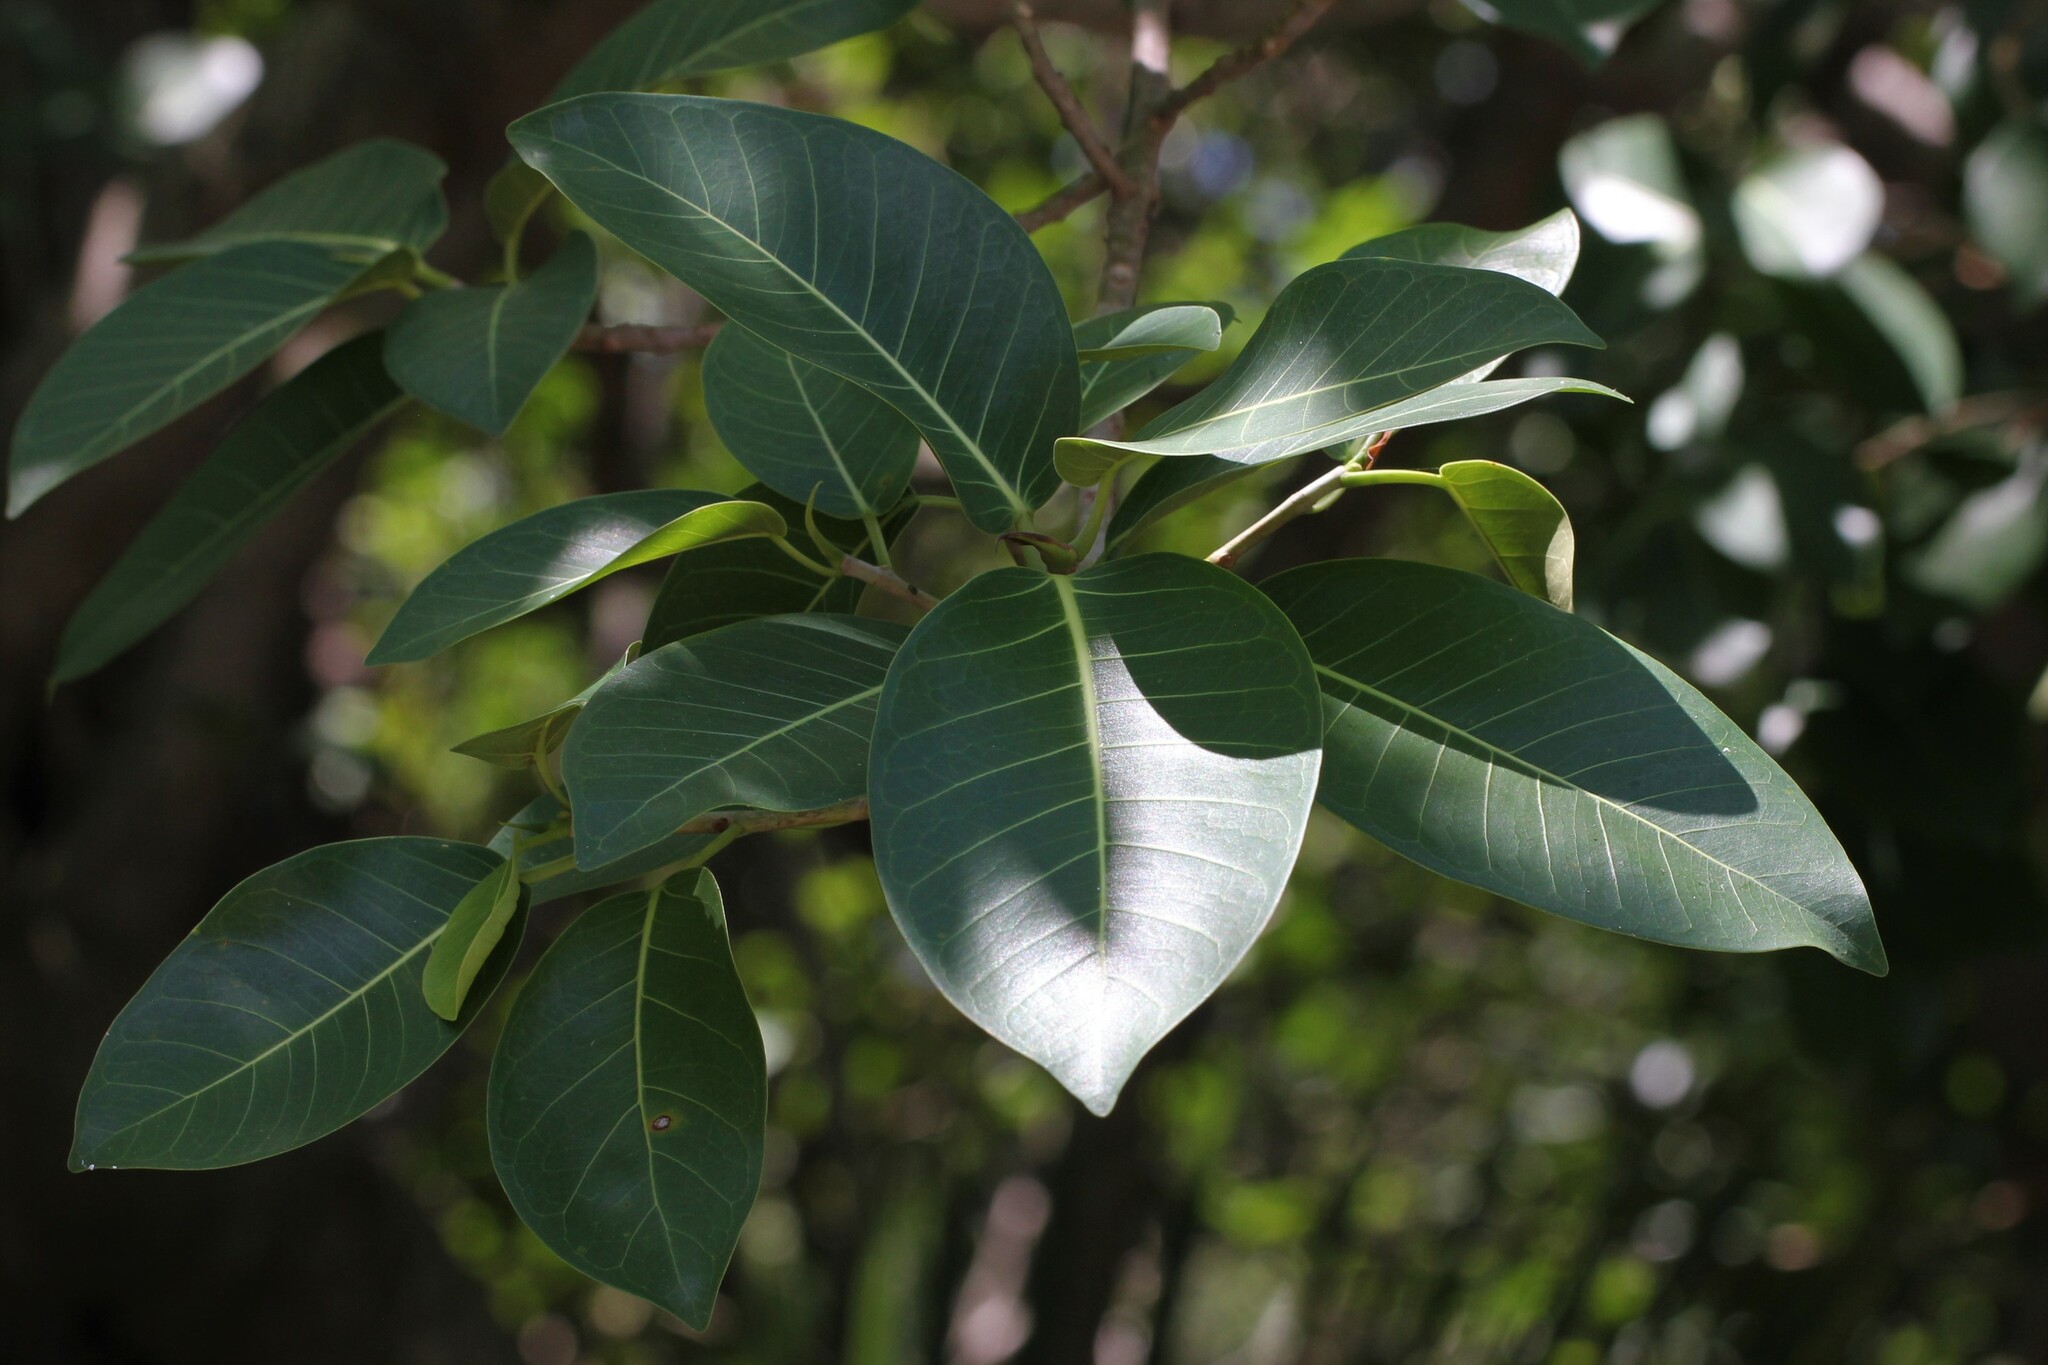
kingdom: Plantae
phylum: Tracheophyta
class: Magnoliopsida
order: Rosales
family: Moraceae
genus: Ficus
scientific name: Ficus aurea
